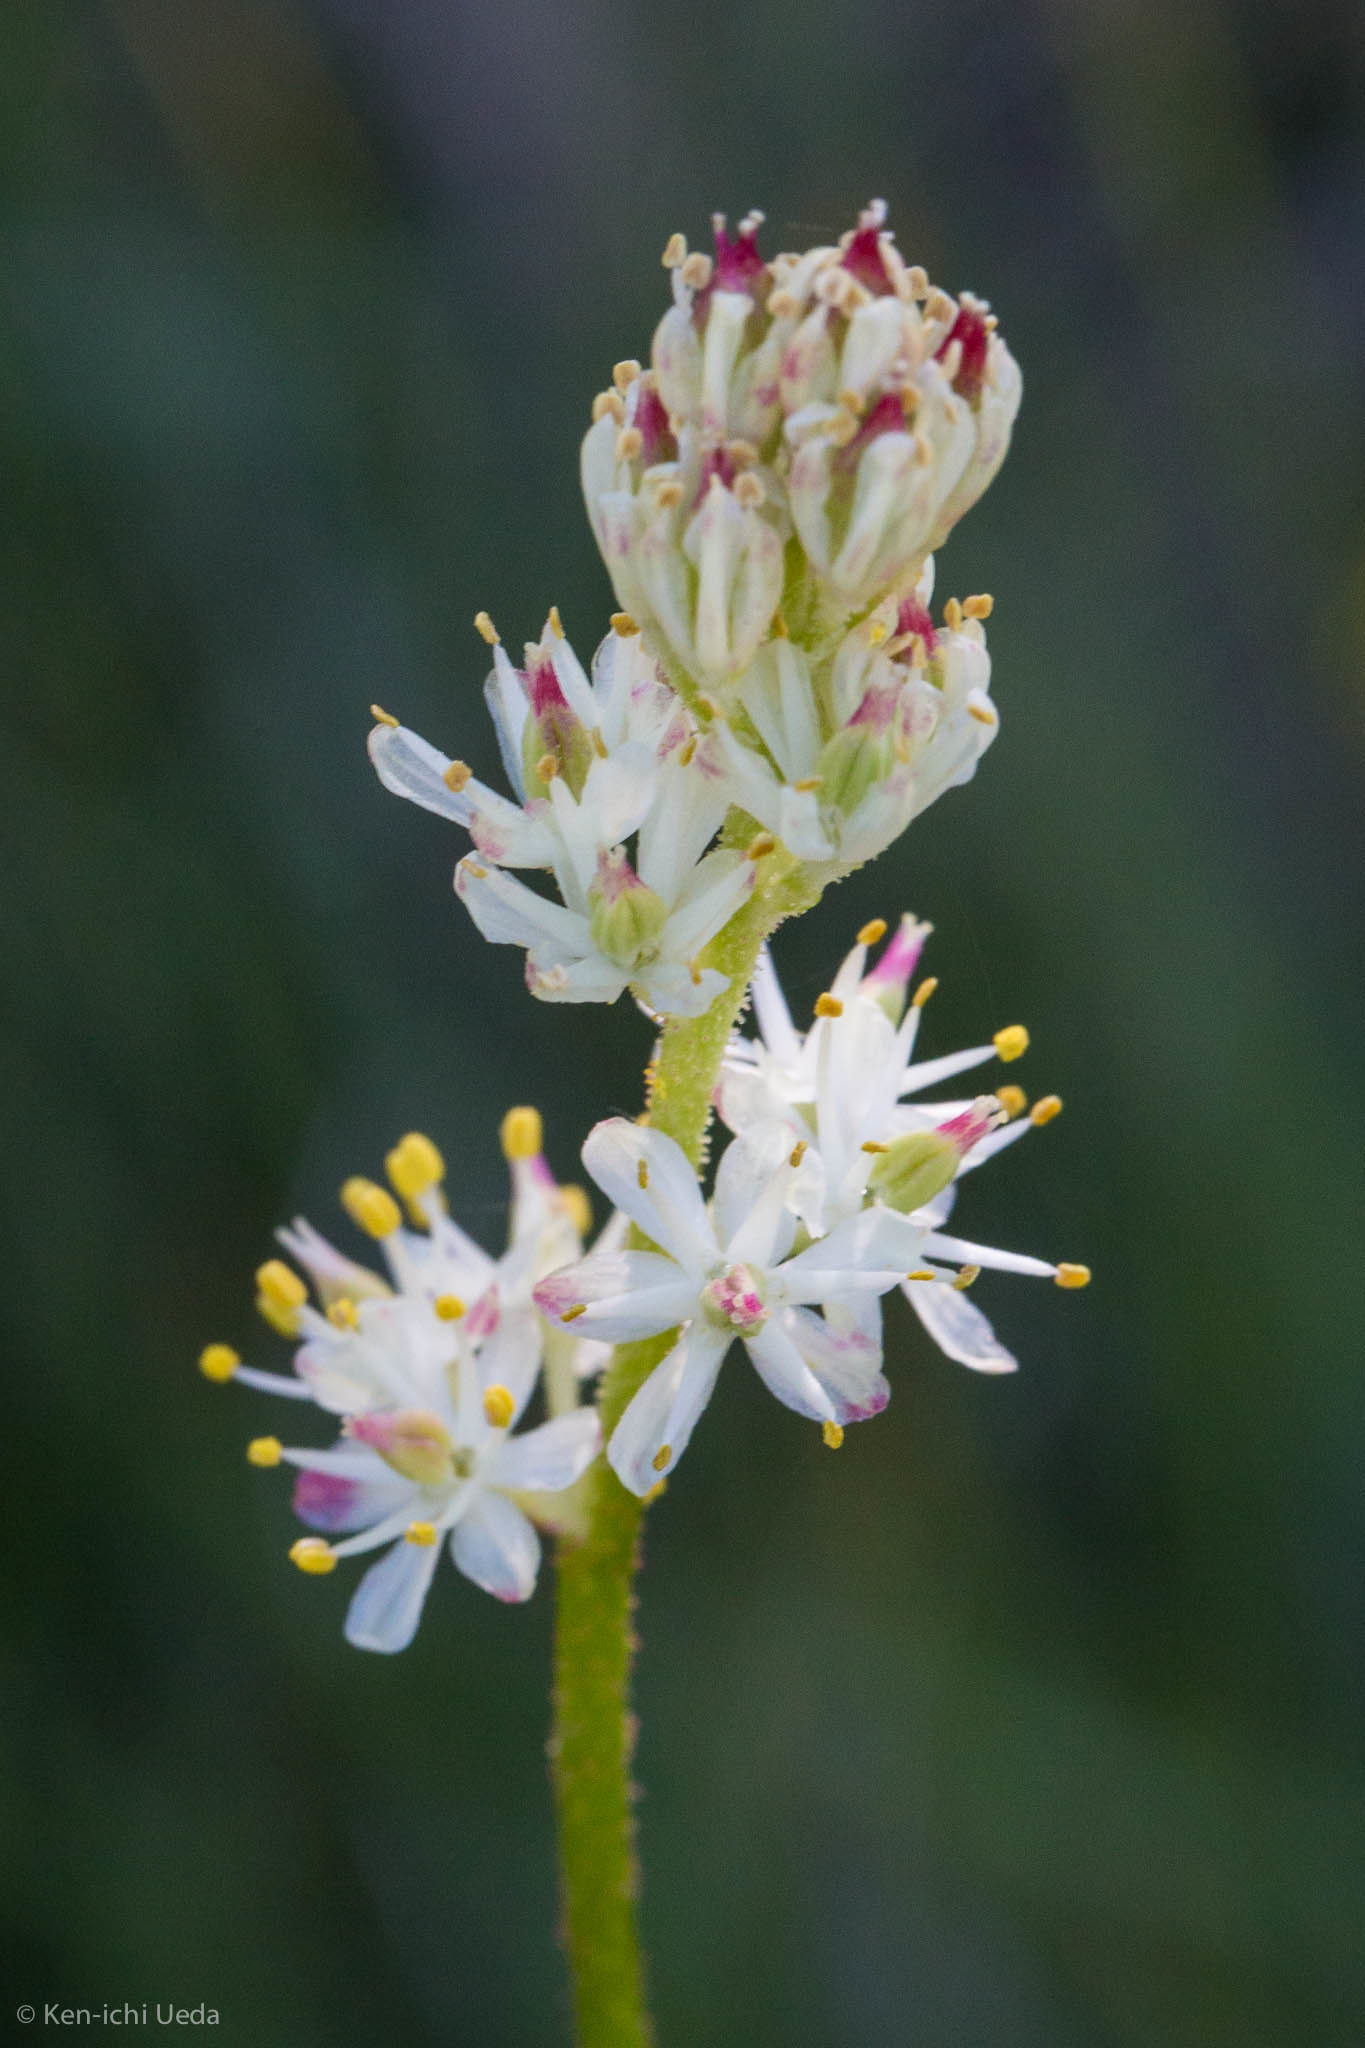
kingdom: Plantae
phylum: Tracheophyta
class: Liliopsida
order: Alismatales
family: Tofieldiaceae
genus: Triantha
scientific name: Triantha occidentalis
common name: Western false asphodel
